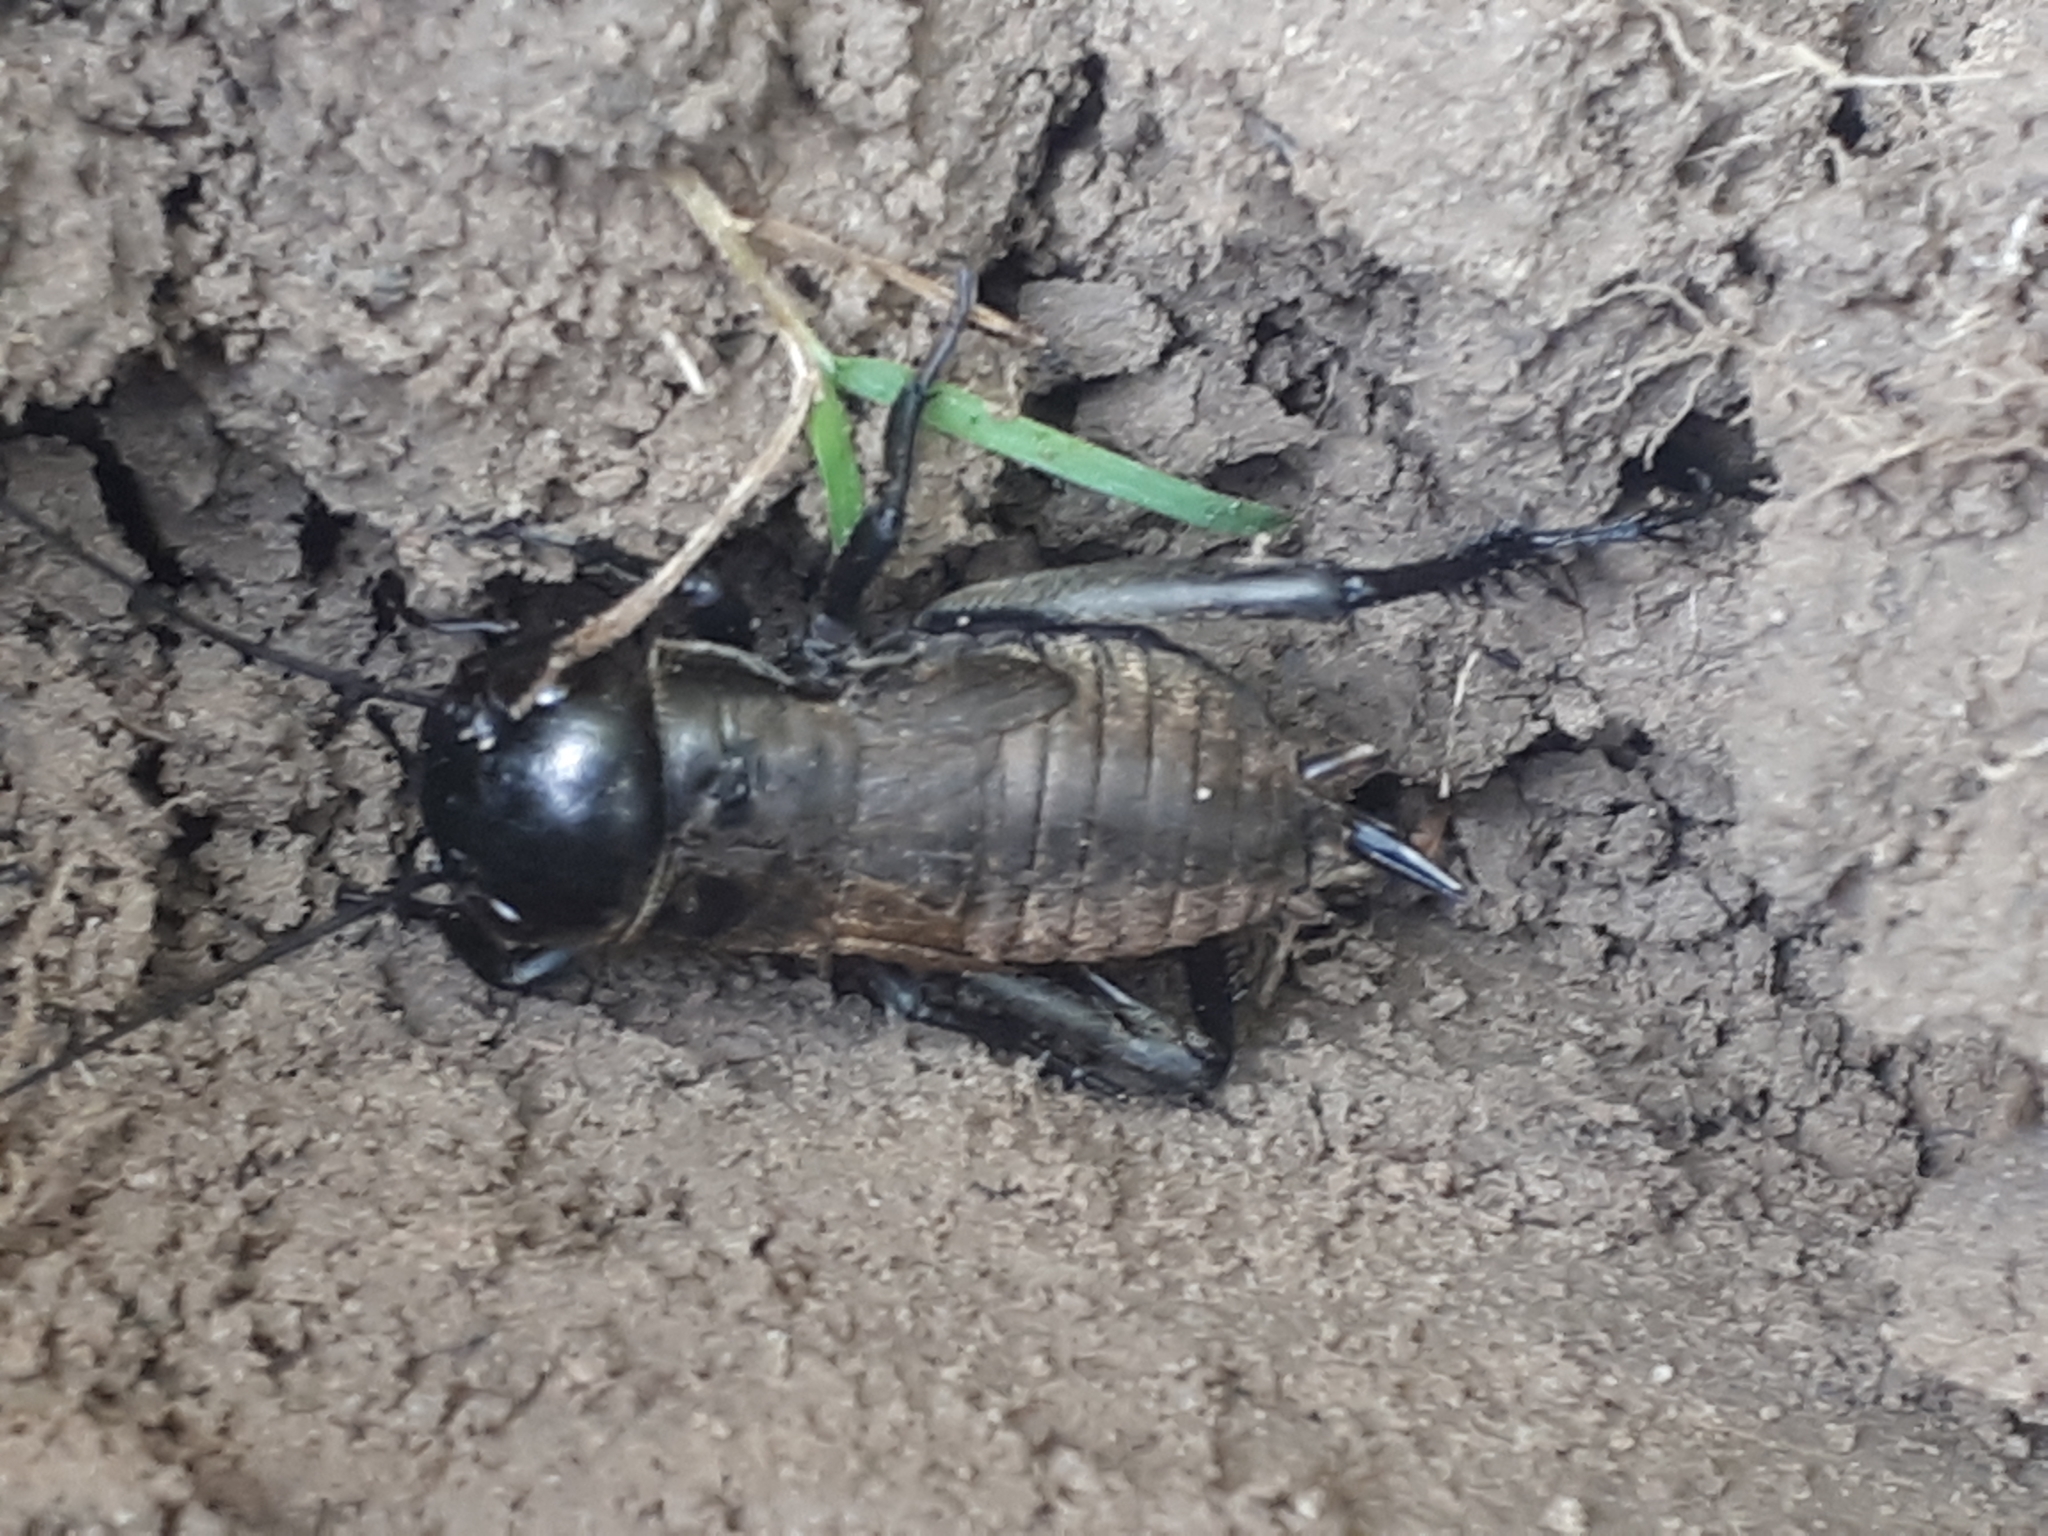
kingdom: Animalia
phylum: Arthropoda
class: Insecta
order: Orthoptera
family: Gryllidae
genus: Gryllus
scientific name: Gryllus campestris
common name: Field cricket
